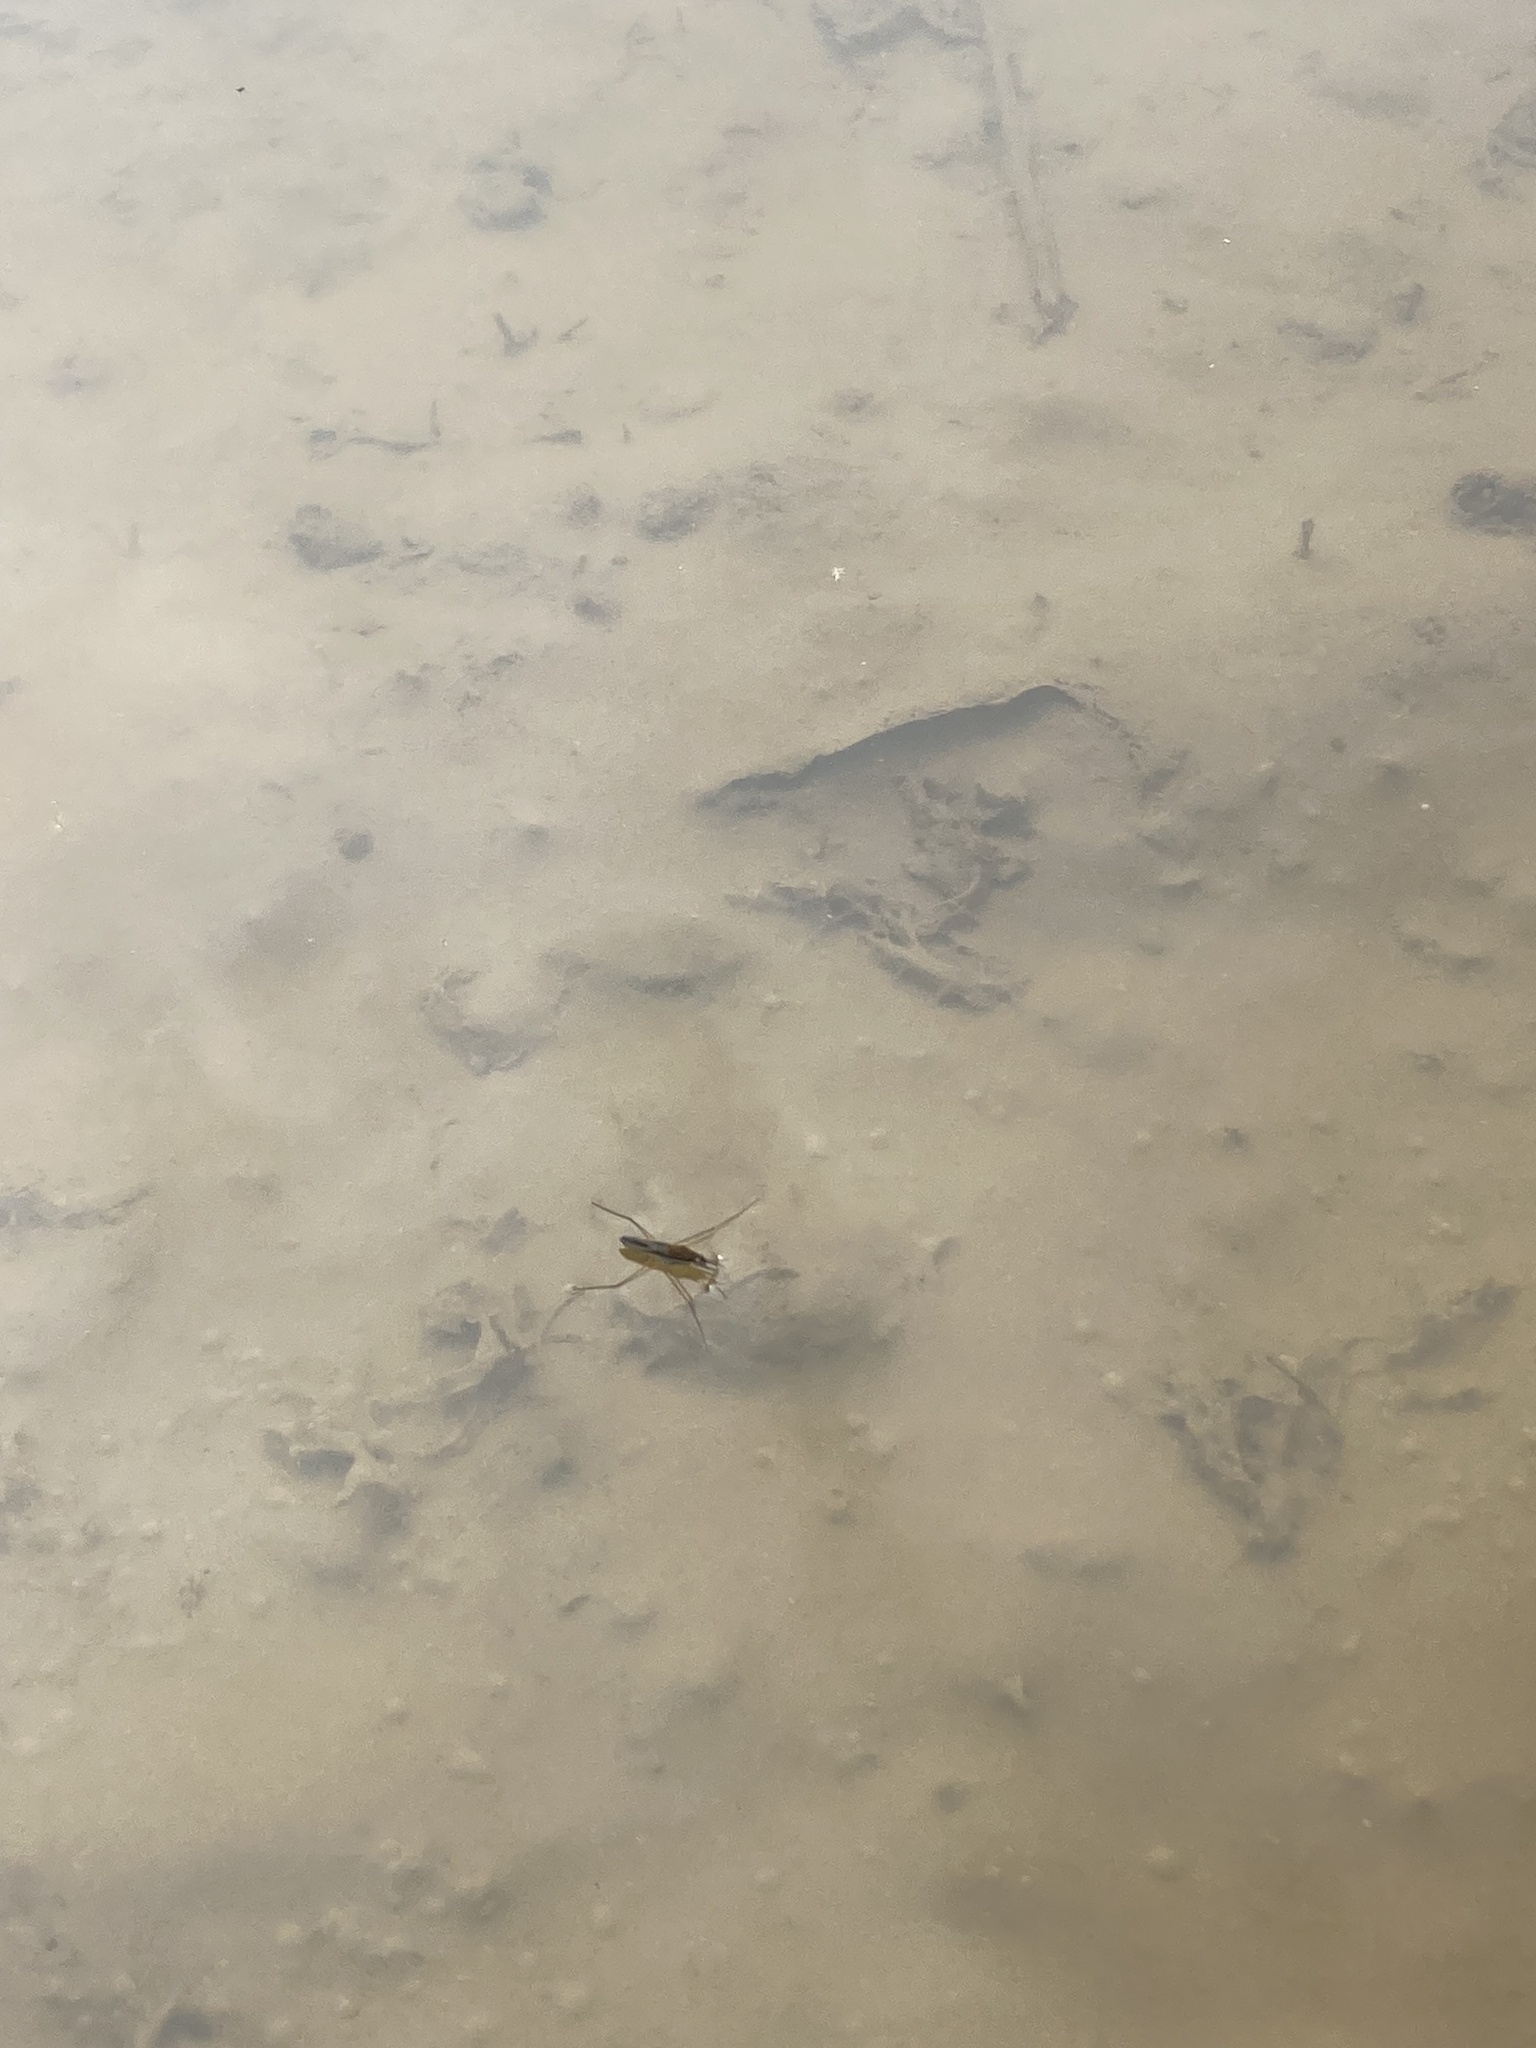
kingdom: Animalia
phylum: Arthropoda
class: Insecta
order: Hemiptera
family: Gerridae
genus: Gerris
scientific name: Gerris
